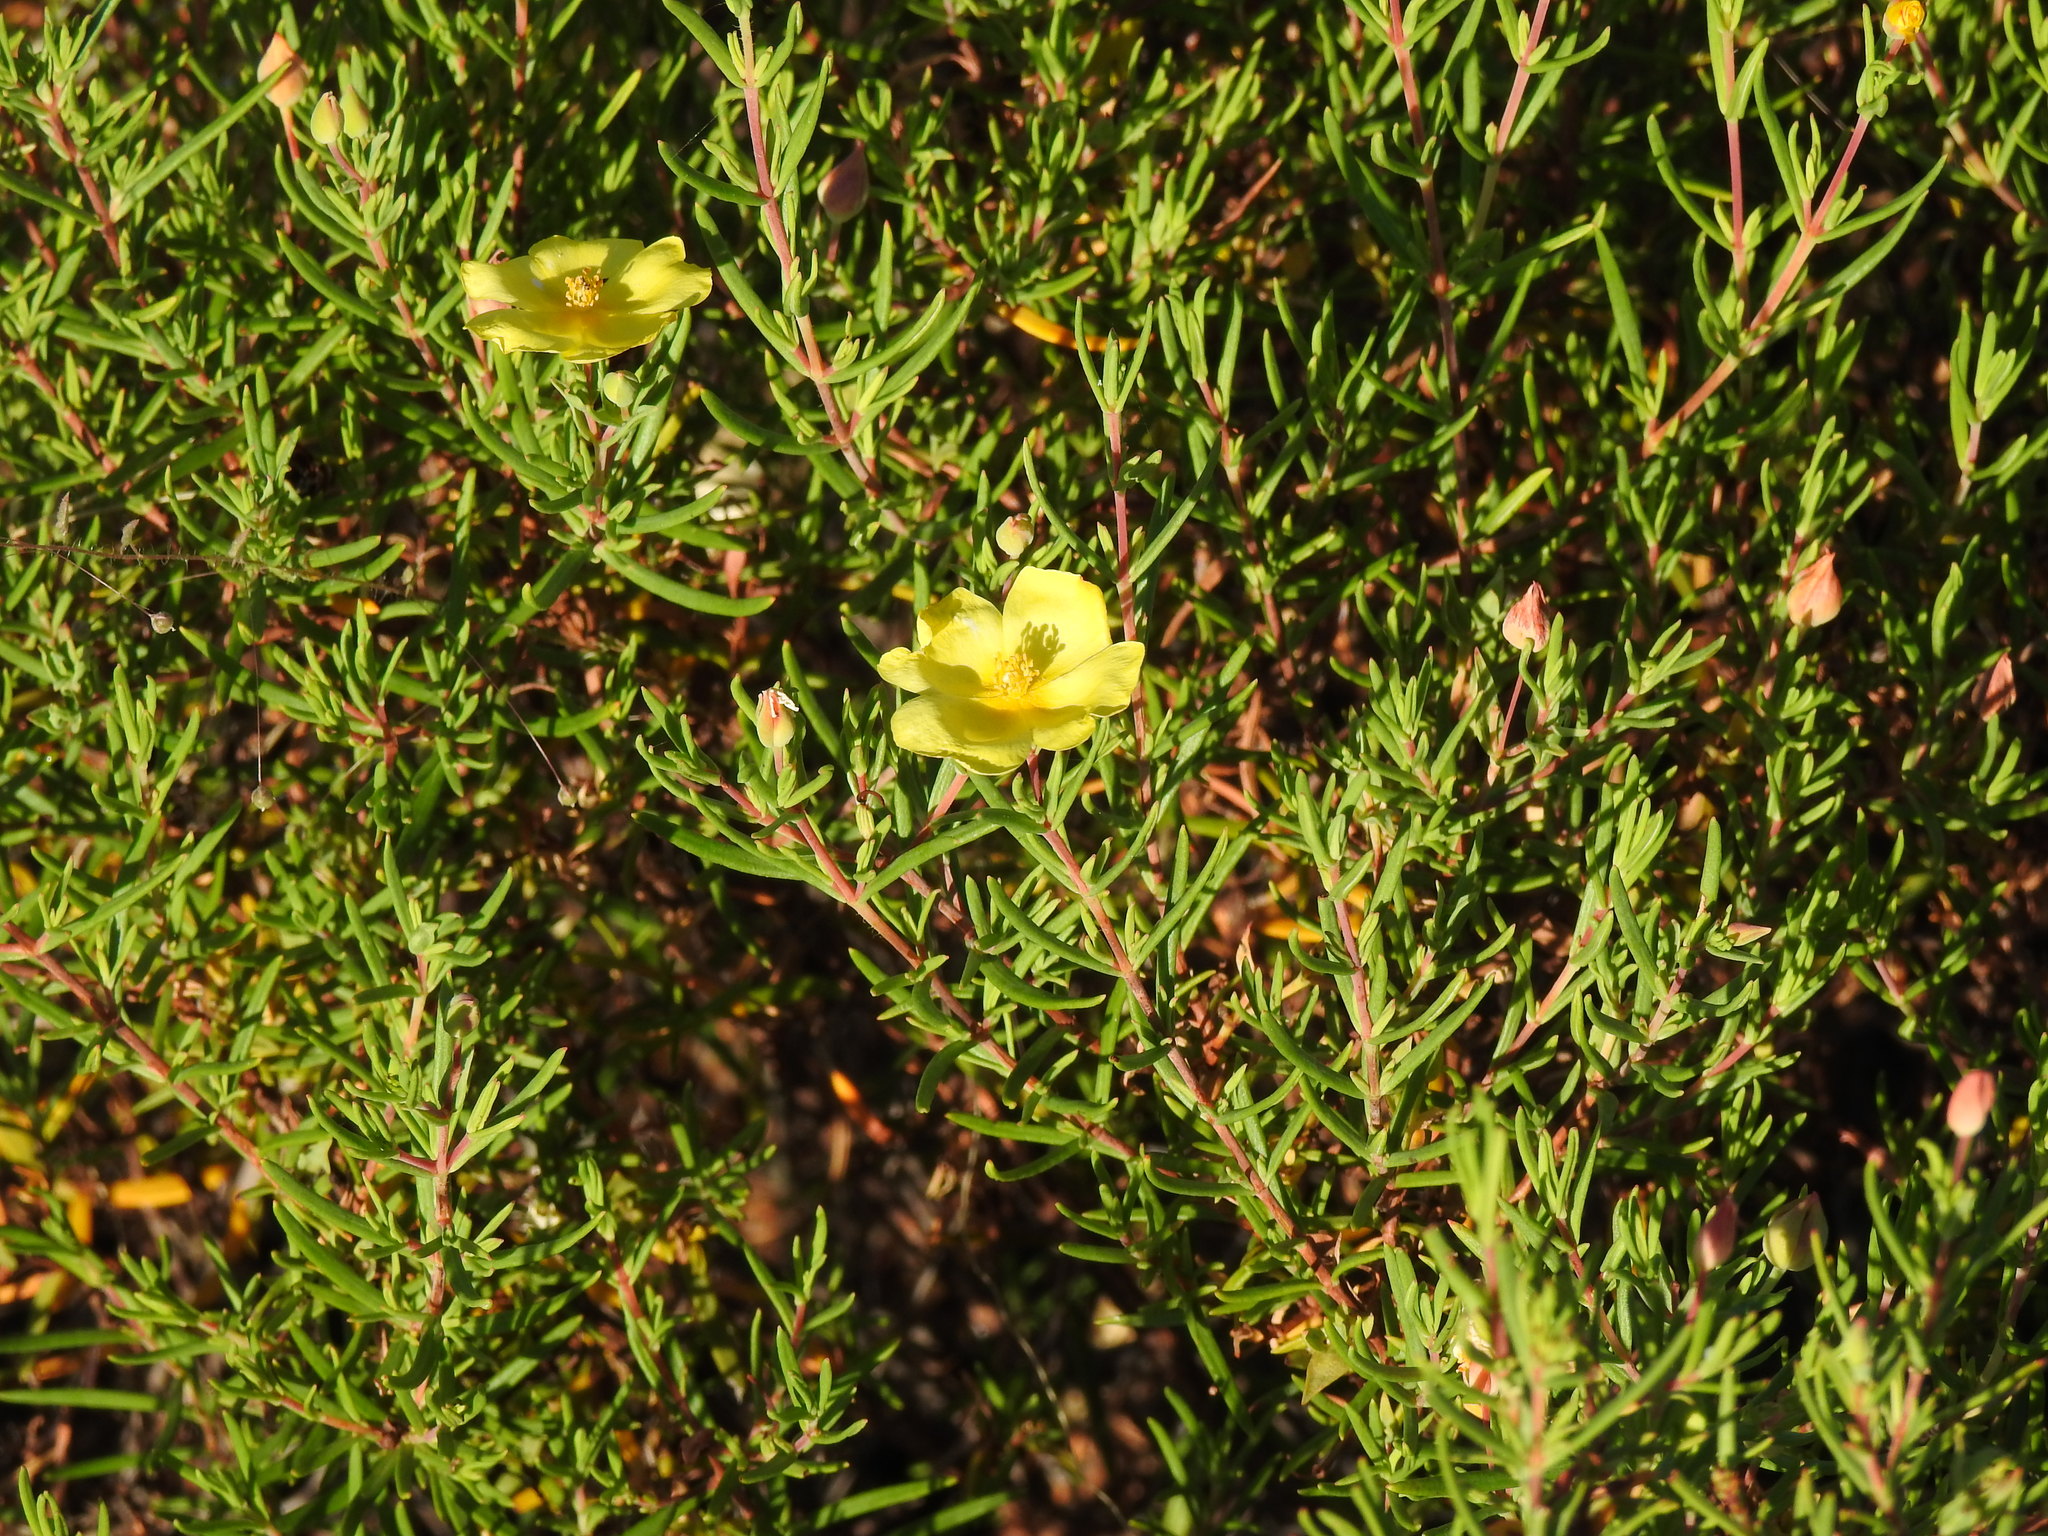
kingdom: Plantae
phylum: Tracheophyta
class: Magnoliopsida
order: Malvales
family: Cistaceae
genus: Halimium
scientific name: Halimium calycinum
